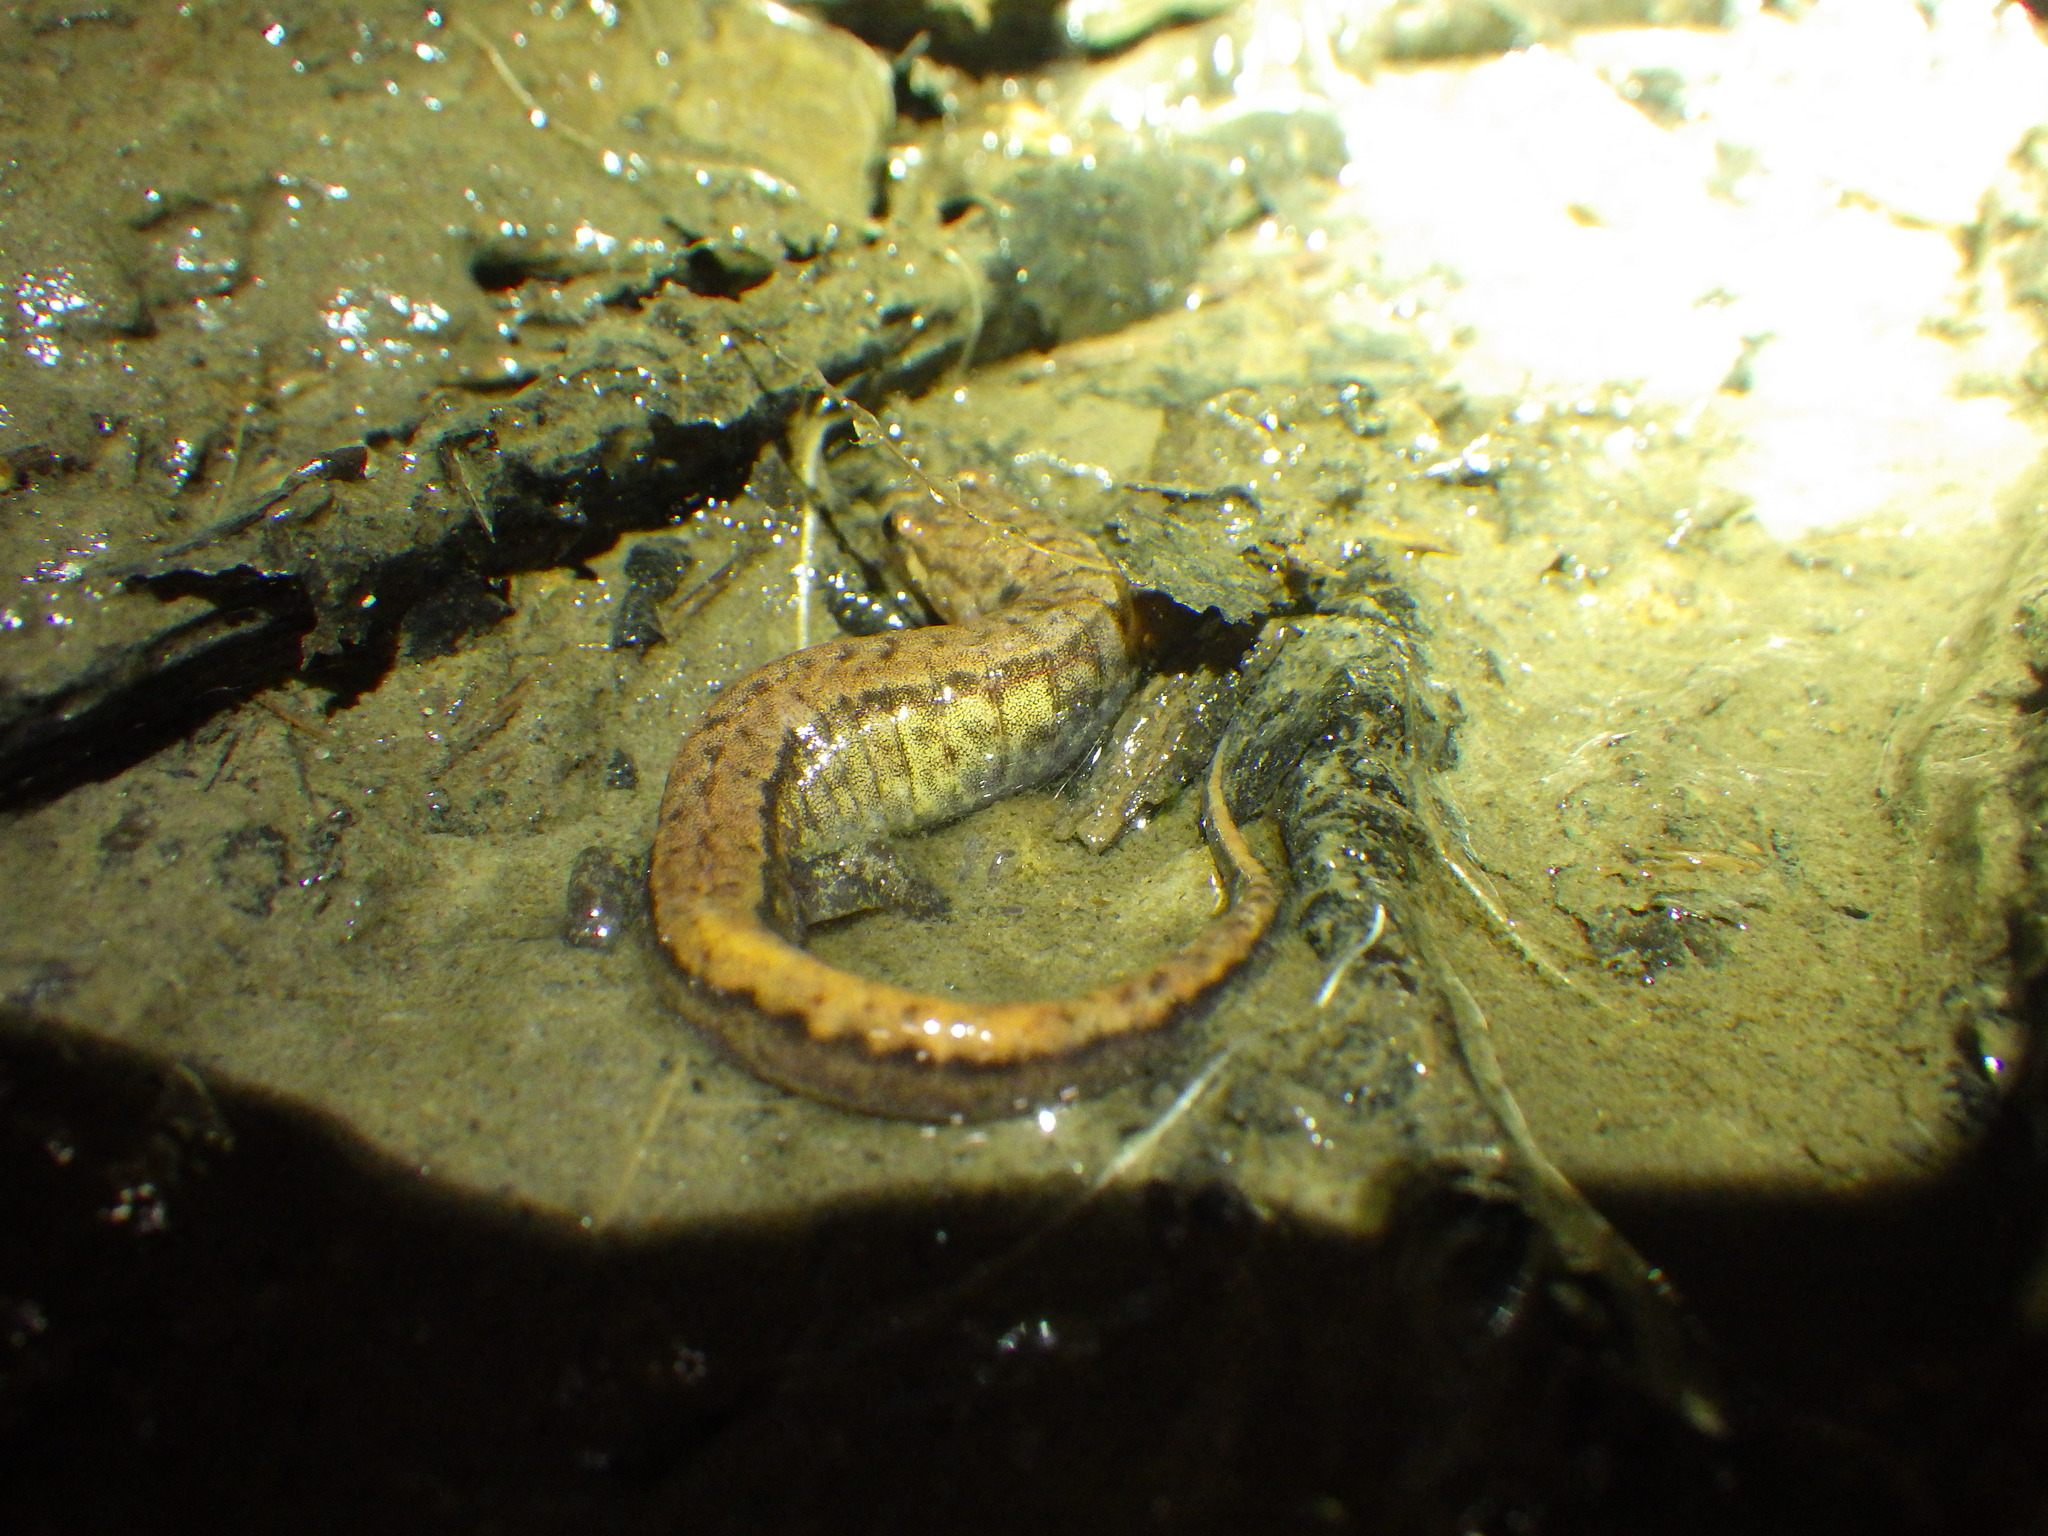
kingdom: Animalia
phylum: Chordata
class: Amphibia
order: Caudata
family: Plethodontidae
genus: Desmognathus
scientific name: Desmognathus ochrophaeus
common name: Allegheny mountain dusky salamander
